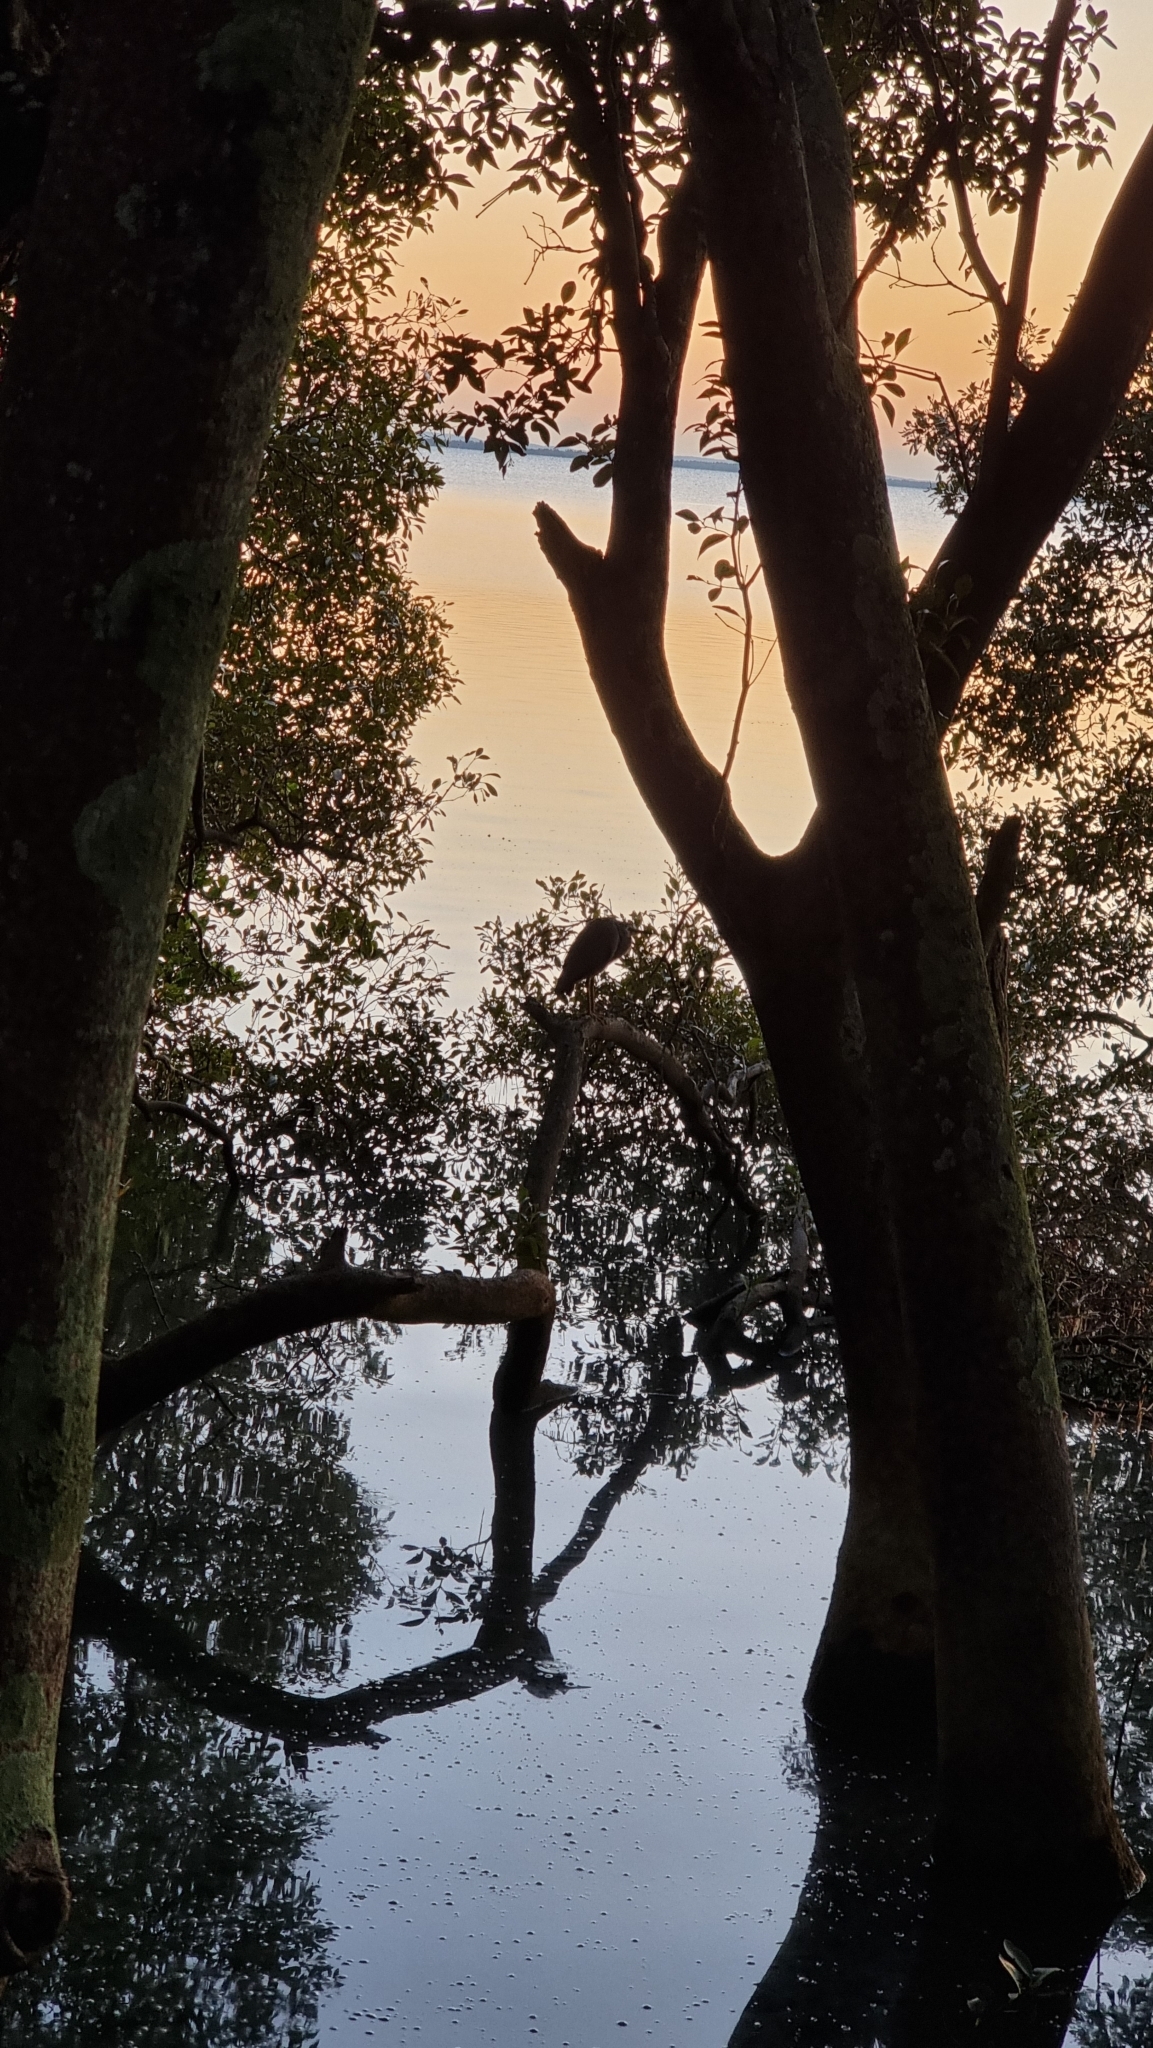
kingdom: Animalia
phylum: Chordata
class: Aves
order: Pelecaniformes
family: Ardeidae
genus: Egretta
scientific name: Egretta novaehollandiae
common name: White-faced heron
